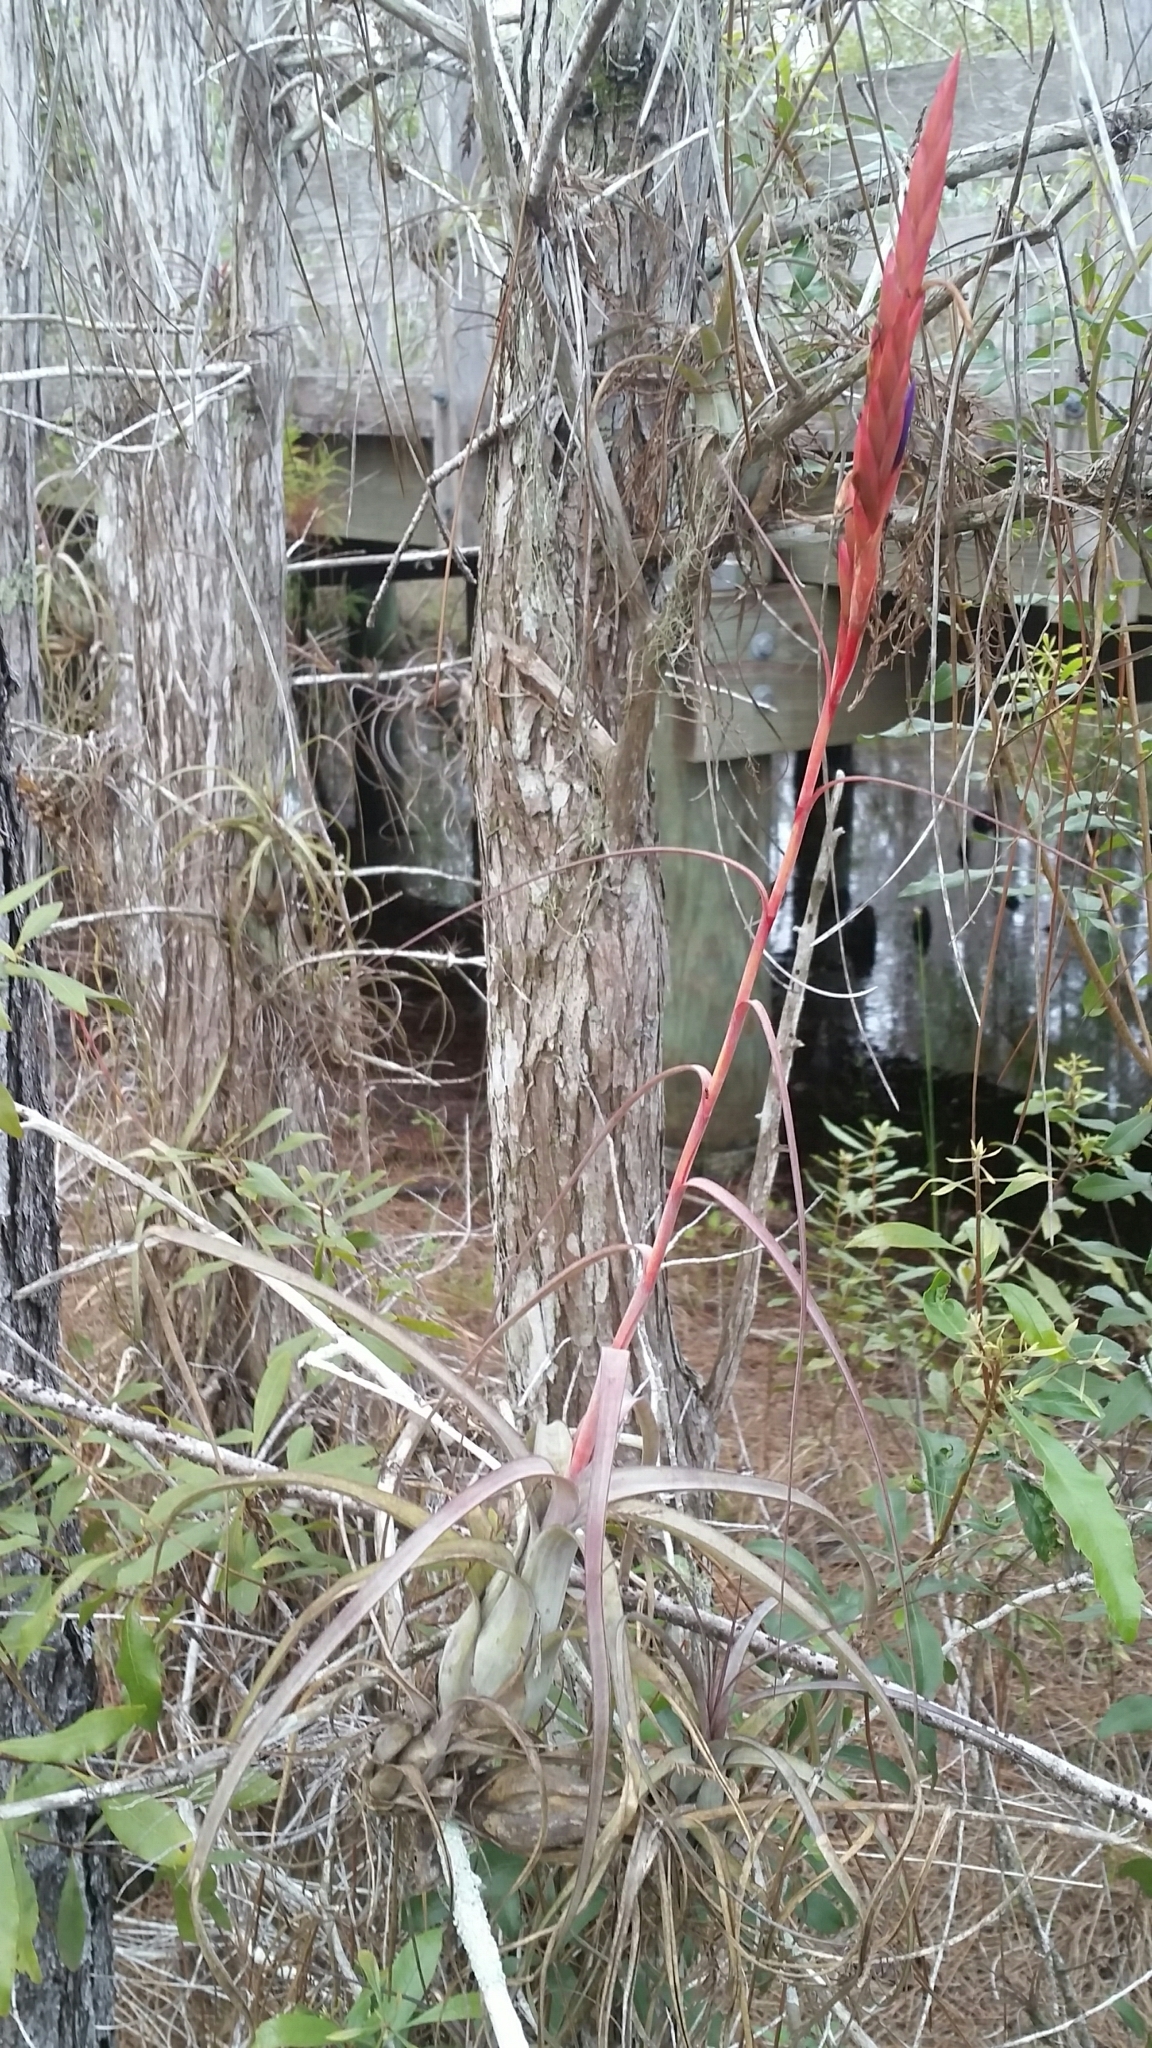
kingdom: Plantae
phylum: Tracheophyta
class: Liliopsida
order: Poales
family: Bromeliaceae
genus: Tillandsia
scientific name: Tillandsia balbisiana
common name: Northern needleleaf
